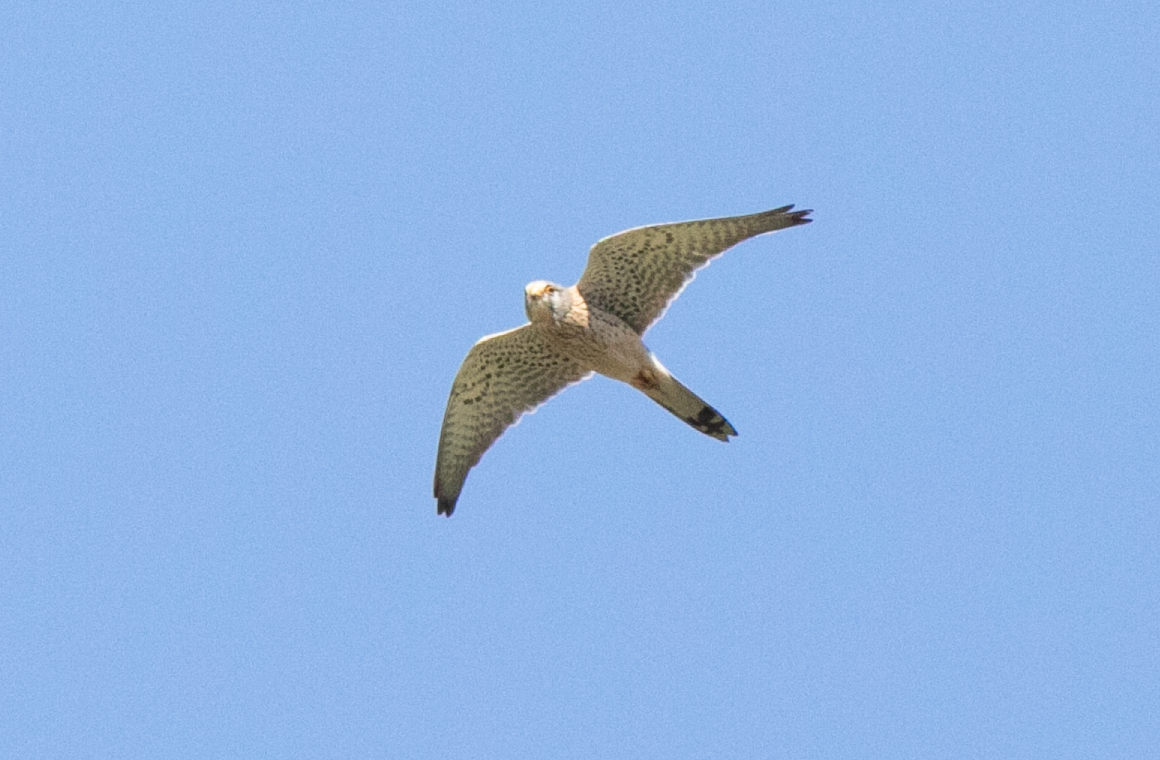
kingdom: Animalia
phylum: Chordata
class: Aves
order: Falconiformes
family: Falconidae
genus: Falco
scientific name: Falco tinnunculus
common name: Common kestrel
